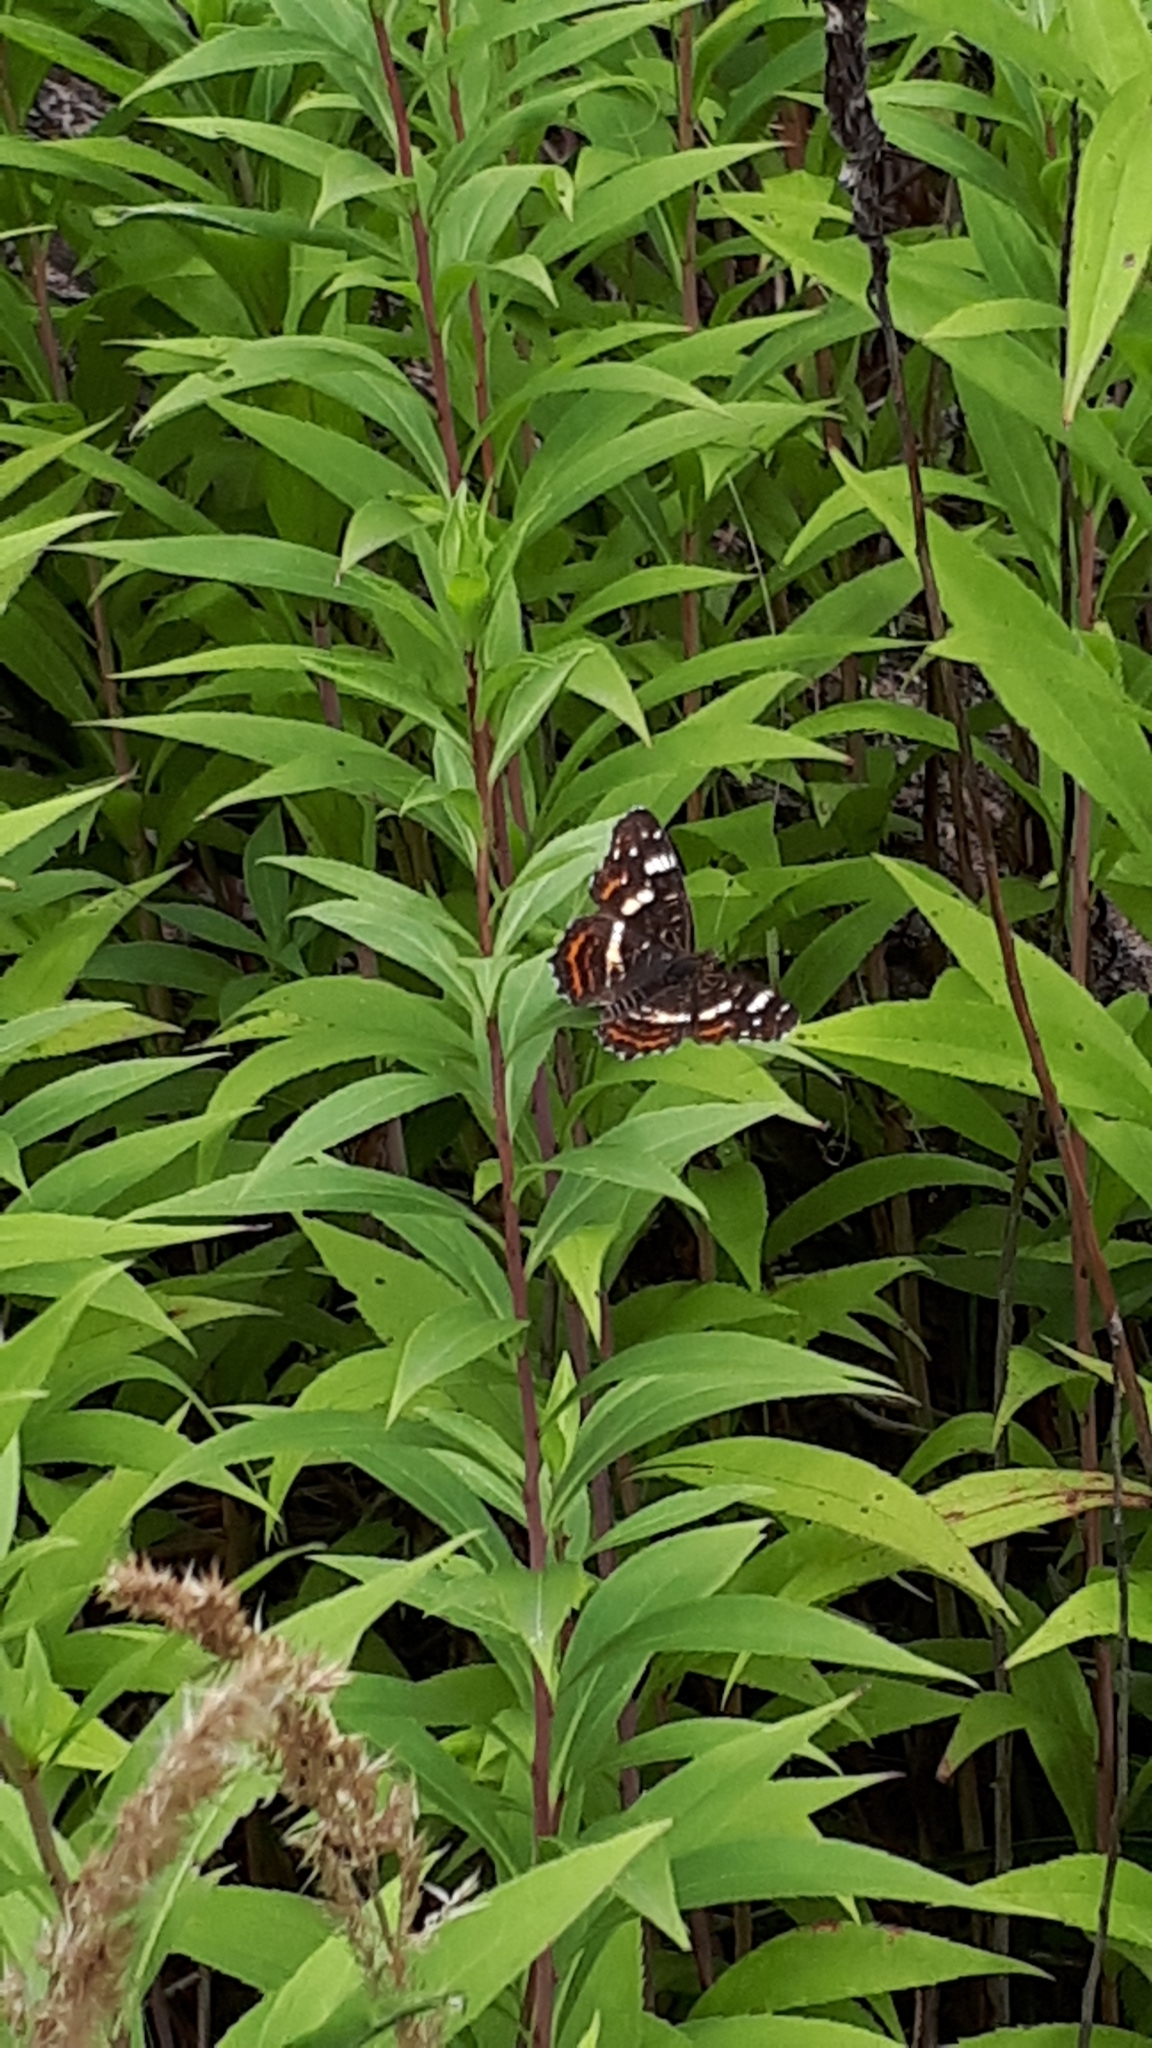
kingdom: Animalia
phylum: Arthropoda
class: Insecta
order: Lepidoptera
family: Nymphalidae
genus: Araschnia
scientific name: Araschnia levana
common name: Map butterfly
